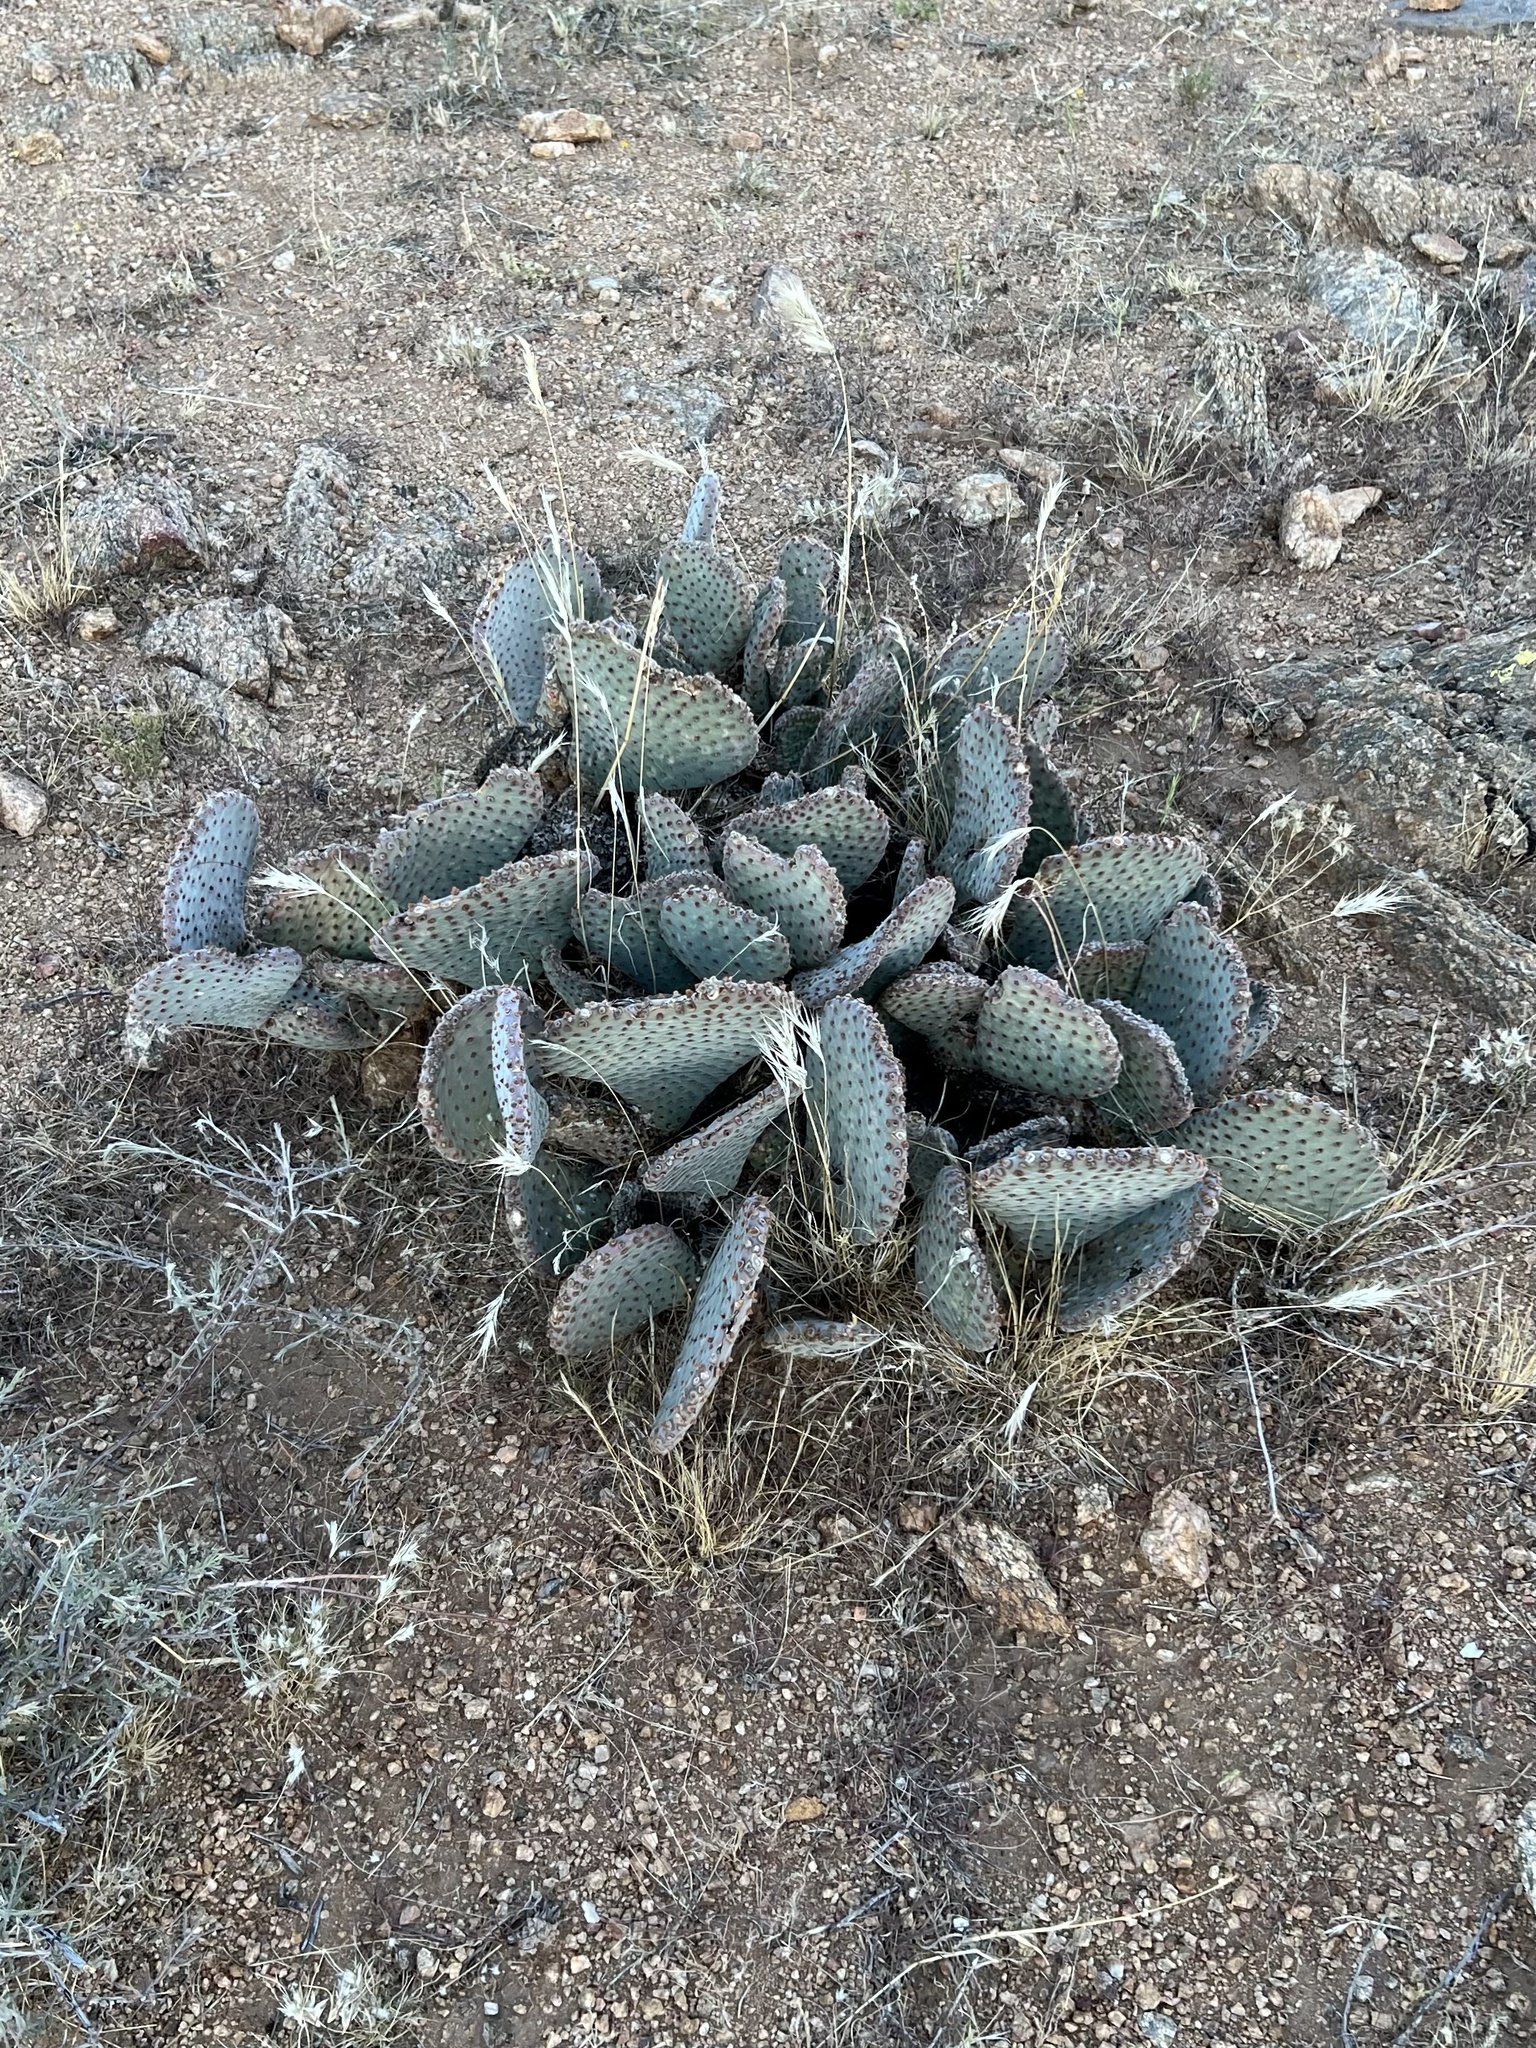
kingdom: Plantae
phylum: Tracheophyta
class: Magnoliopsida
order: Caryophyllales
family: Cactaceae
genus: Opuntia
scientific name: Opuntia basilaris
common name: Beavertail prickly-pear
